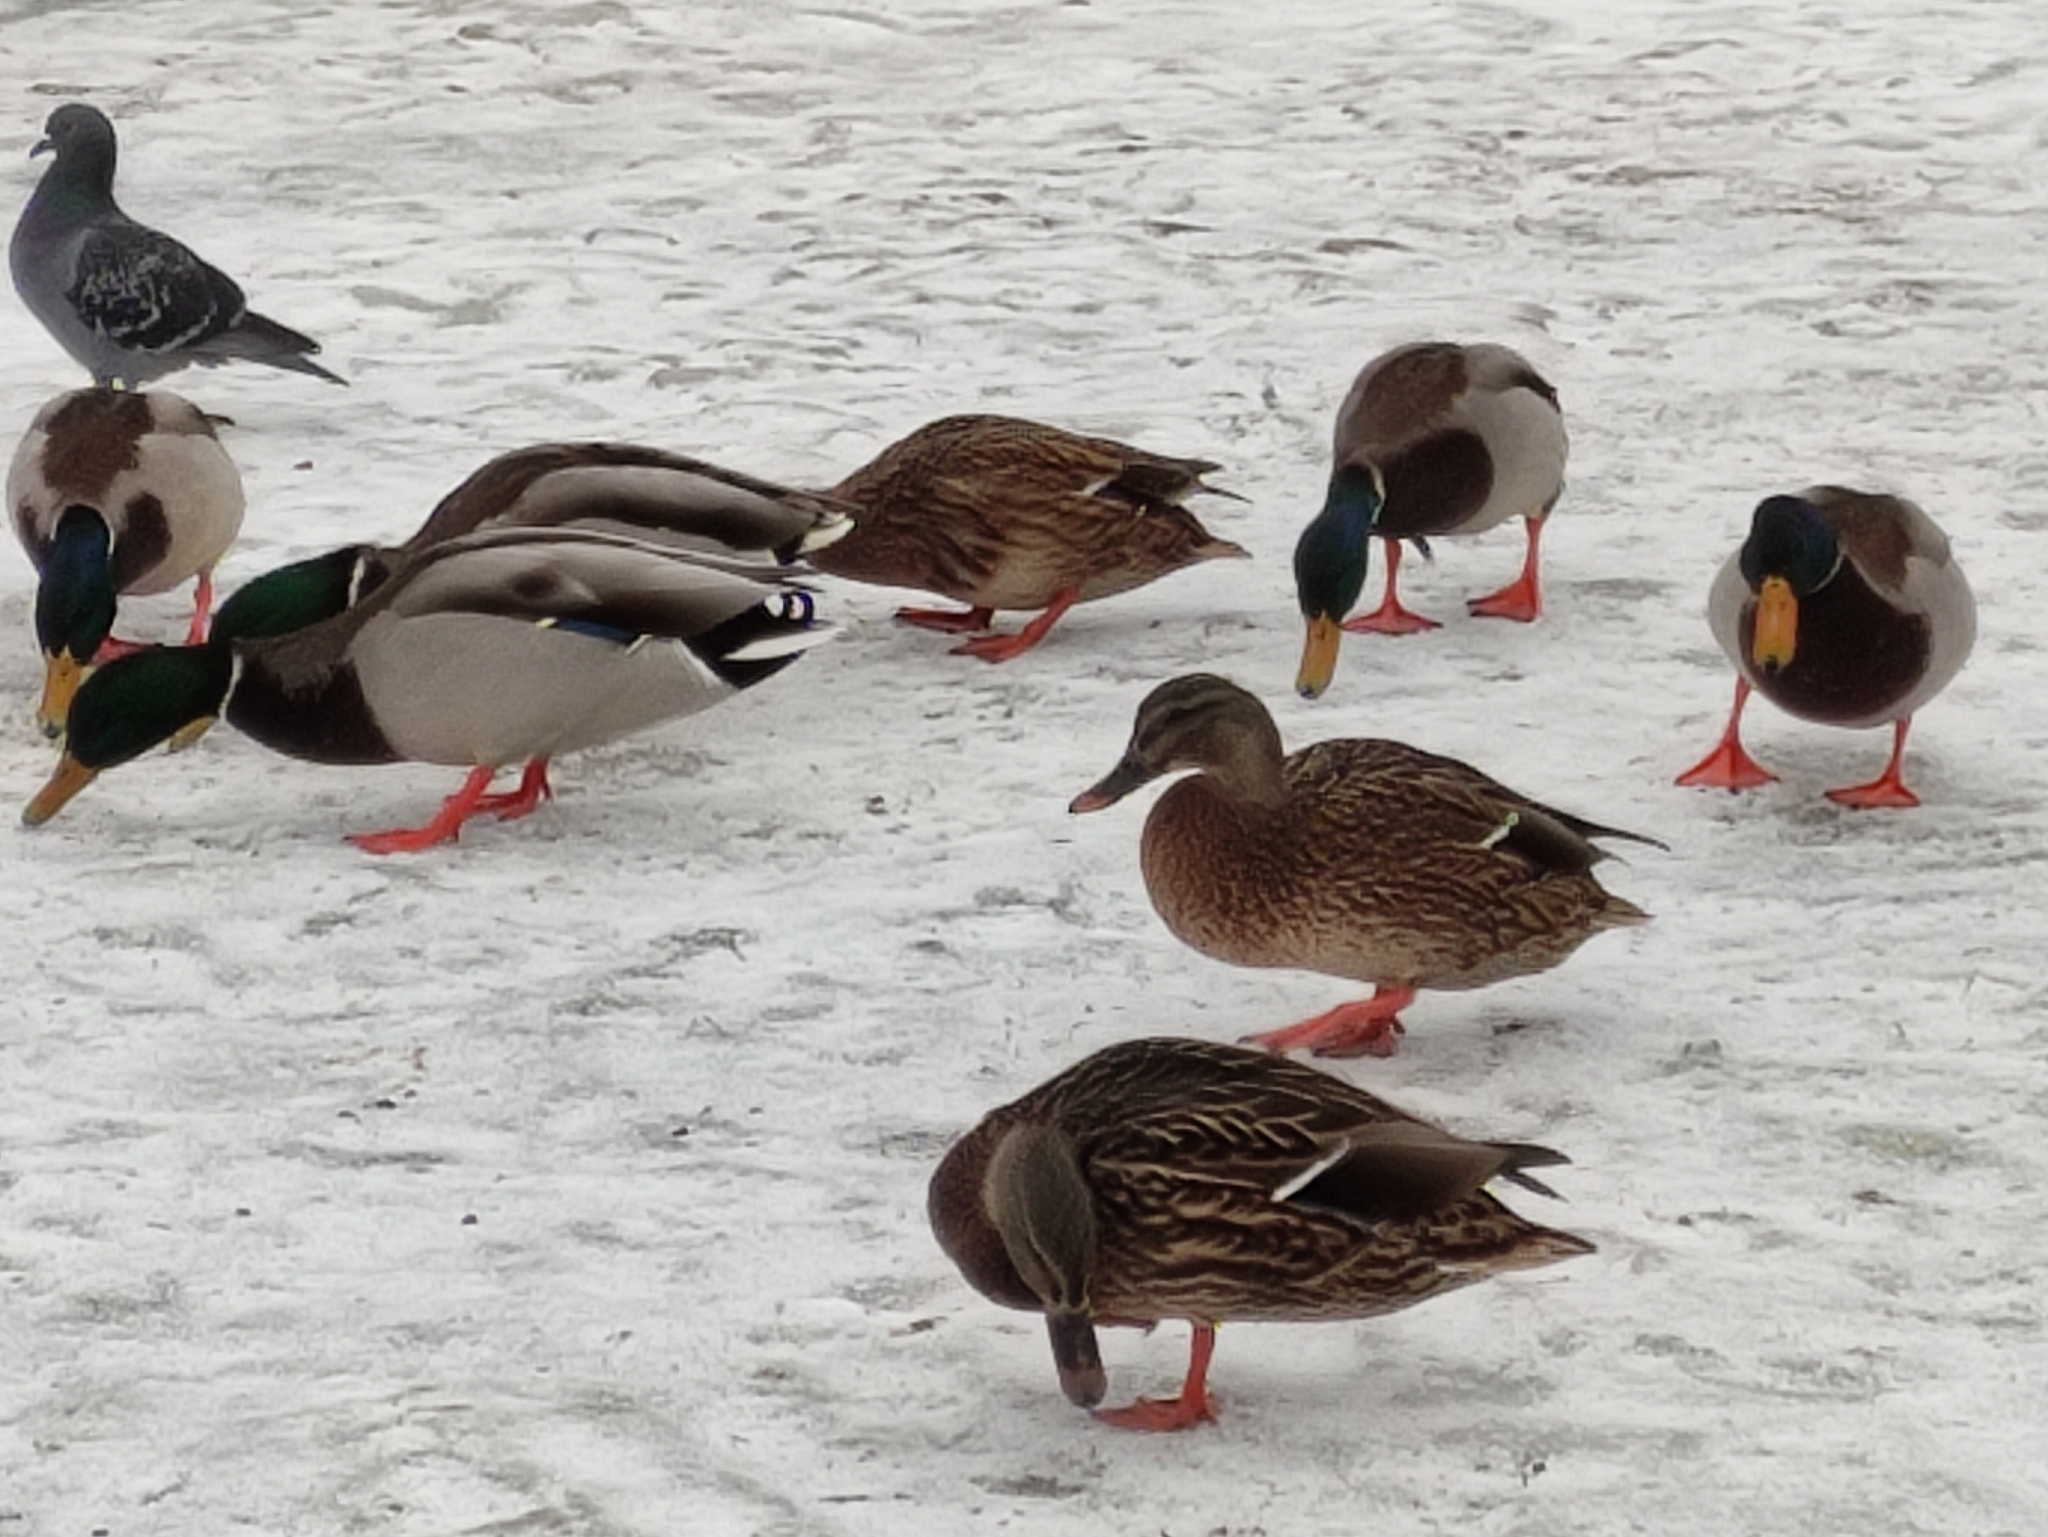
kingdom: Animalia
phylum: Chordata
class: Aves
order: Anseriformes
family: Anatidae
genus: Anas
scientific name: Anas platyrhynchos
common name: Mallard
